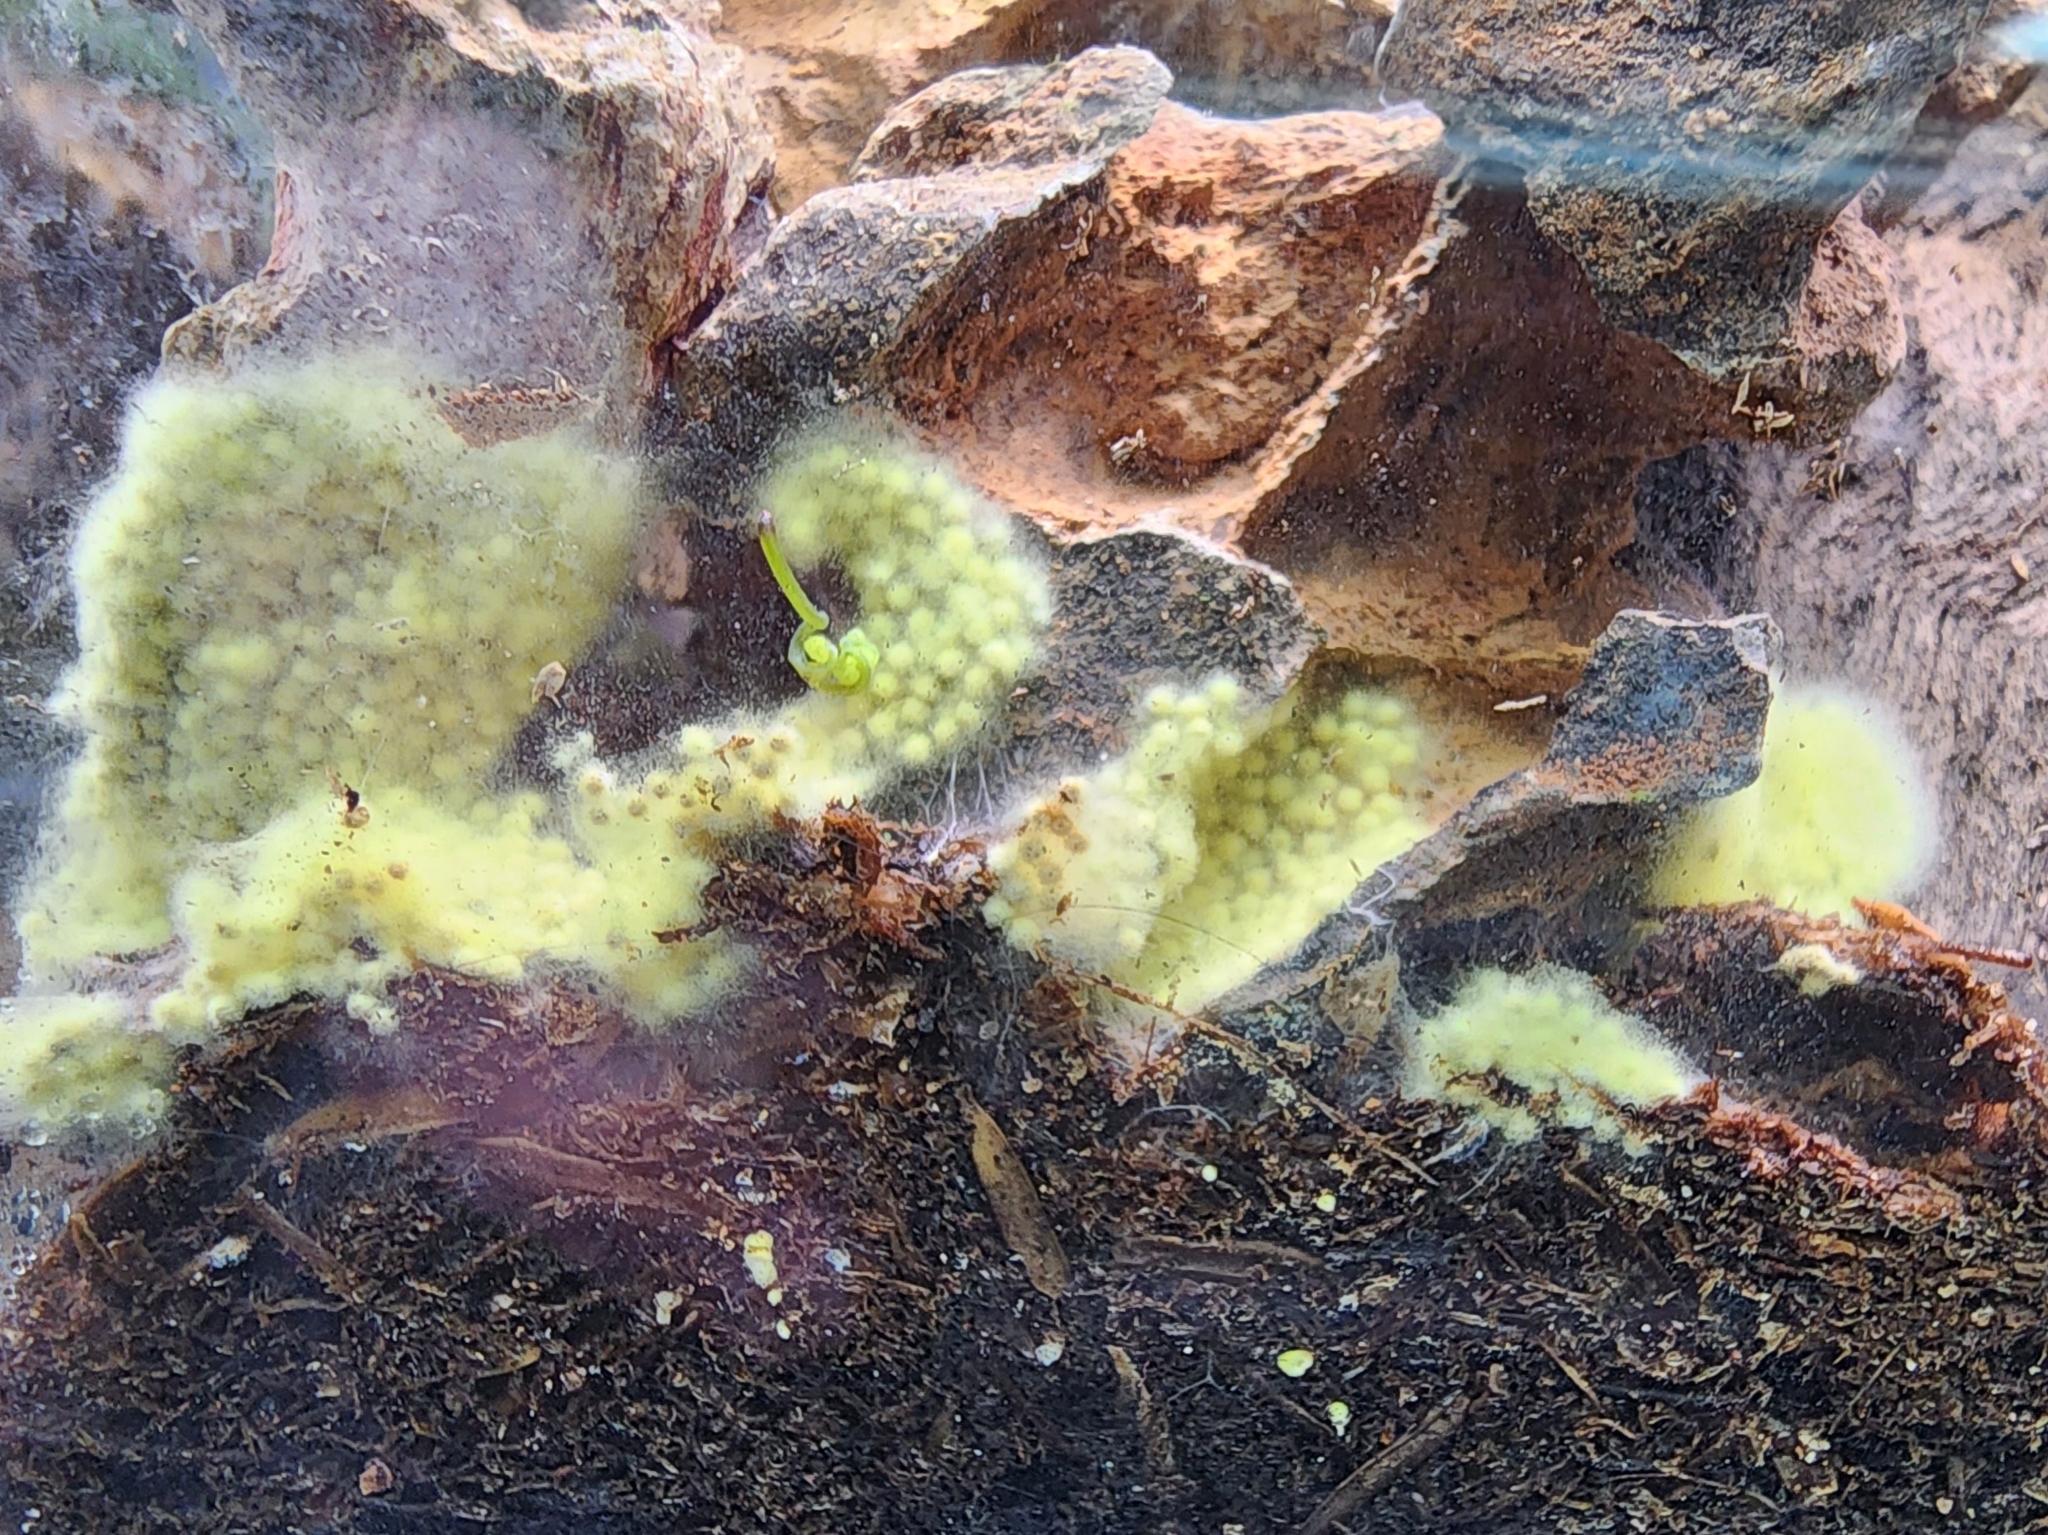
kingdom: Fungi
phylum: Basidiomycota
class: Agaricomycetes
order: Agaricales
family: Agaricaceae
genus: Leucocoprinus
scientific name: Leucocoprinus birnbaumii
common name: Plantpot dapperling
